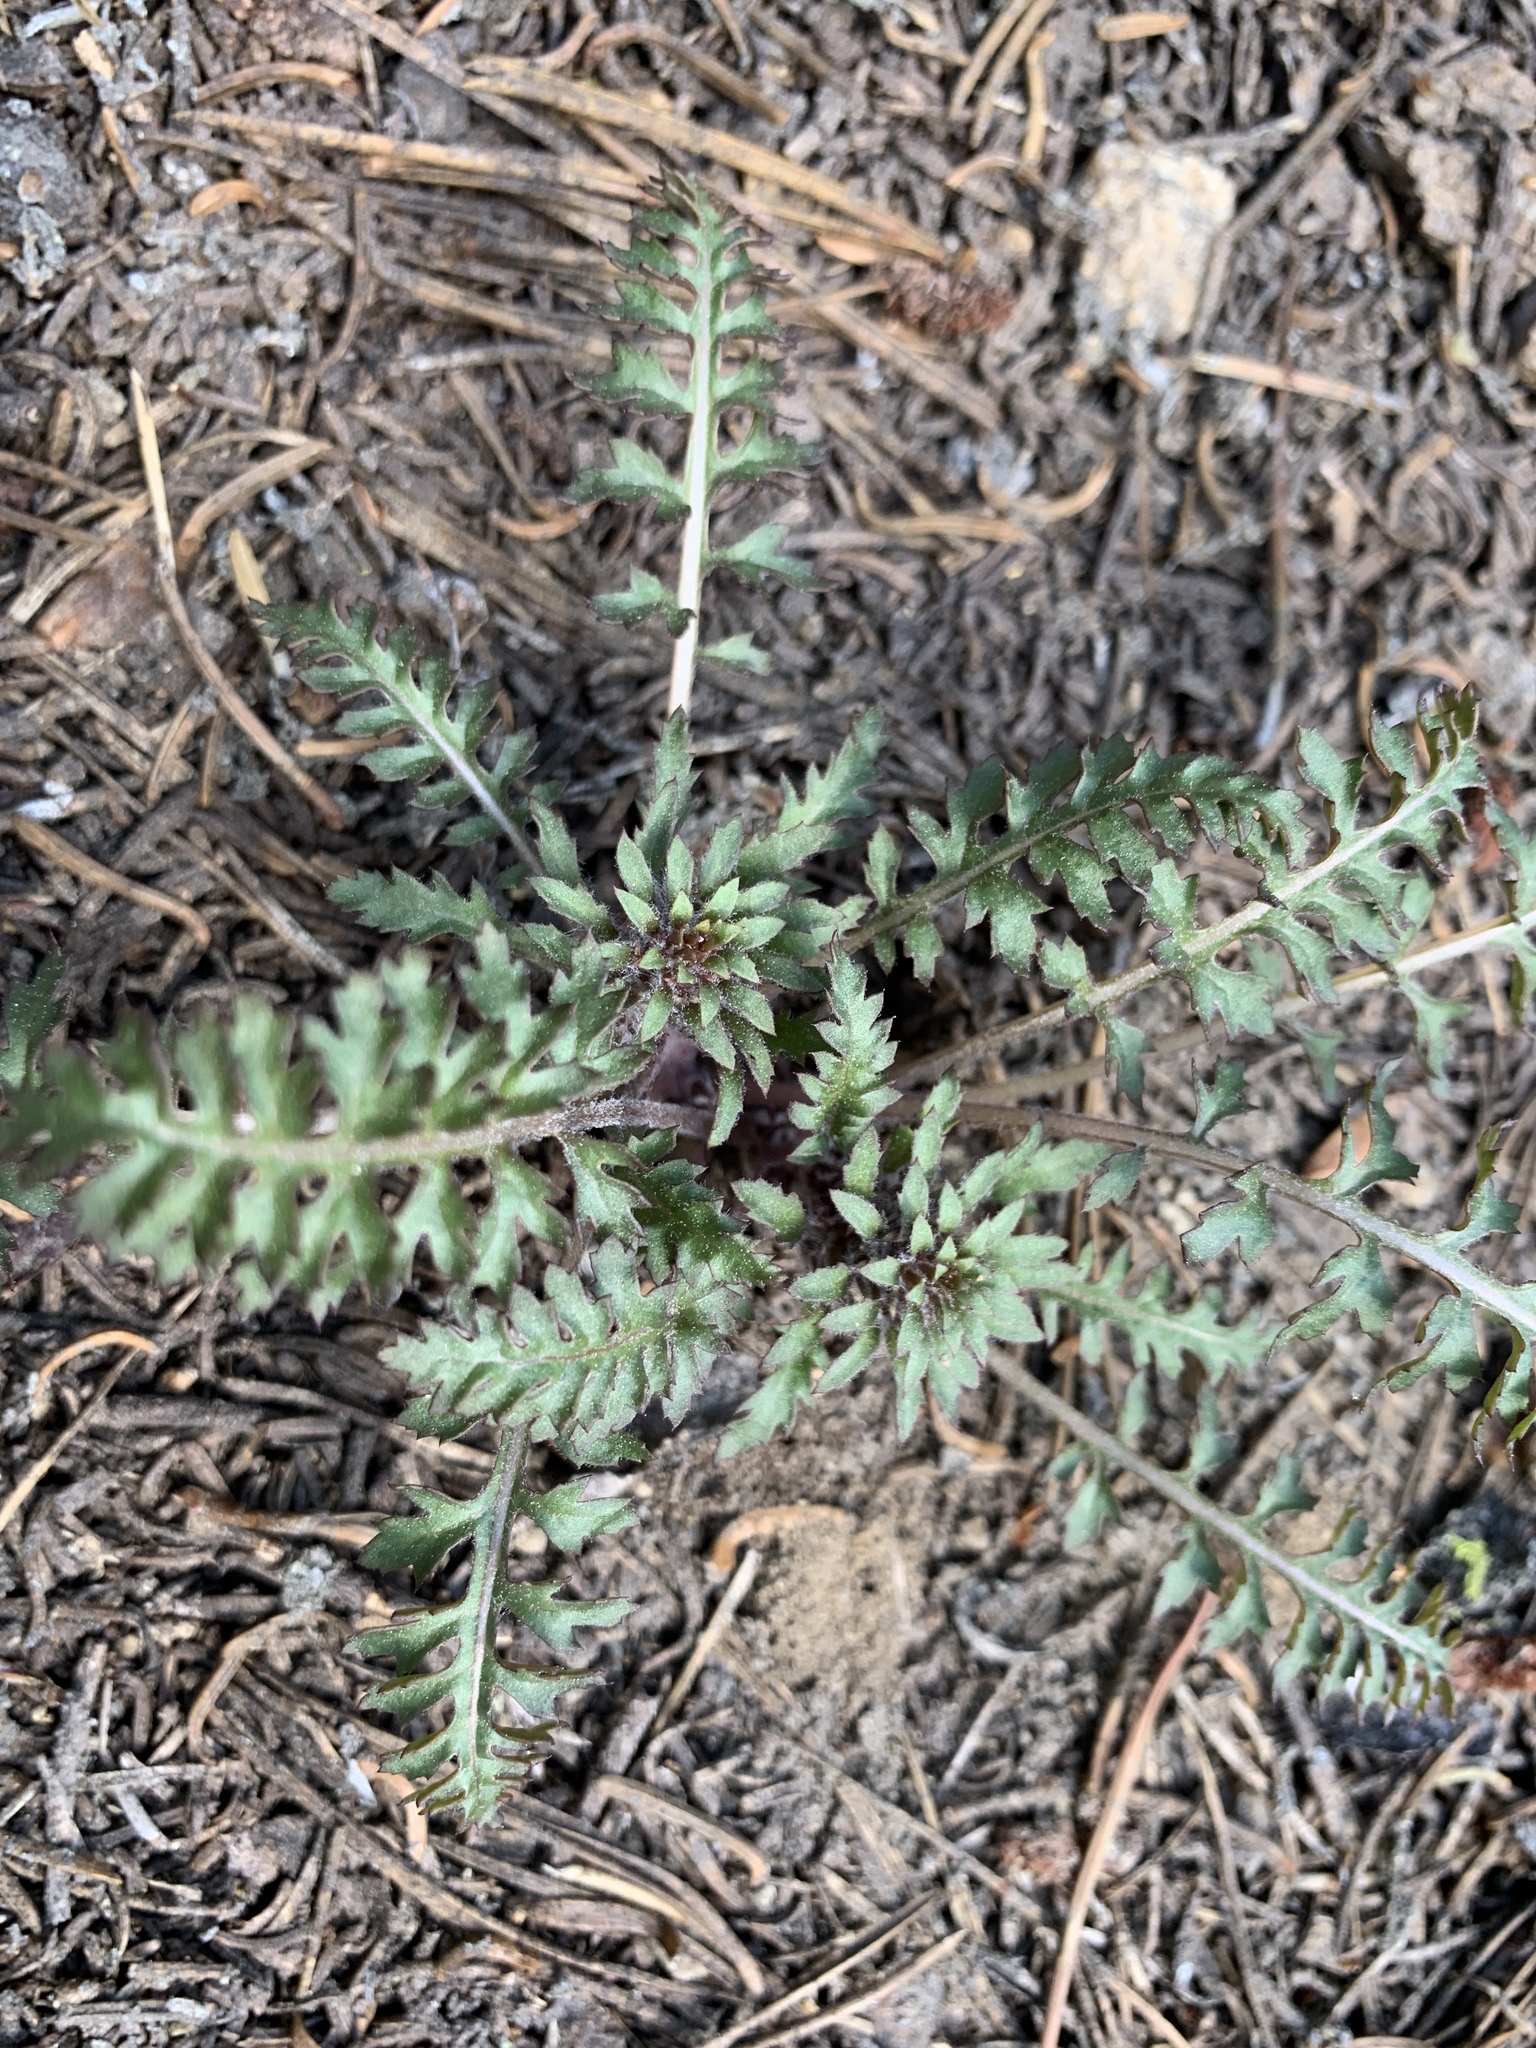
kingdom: Plantae
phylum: Tracheophyta
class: Magnoliopsida
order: Lamiales
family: Orobanchaceae
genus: Pedicularis
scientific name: Pedicularis semibarbata
